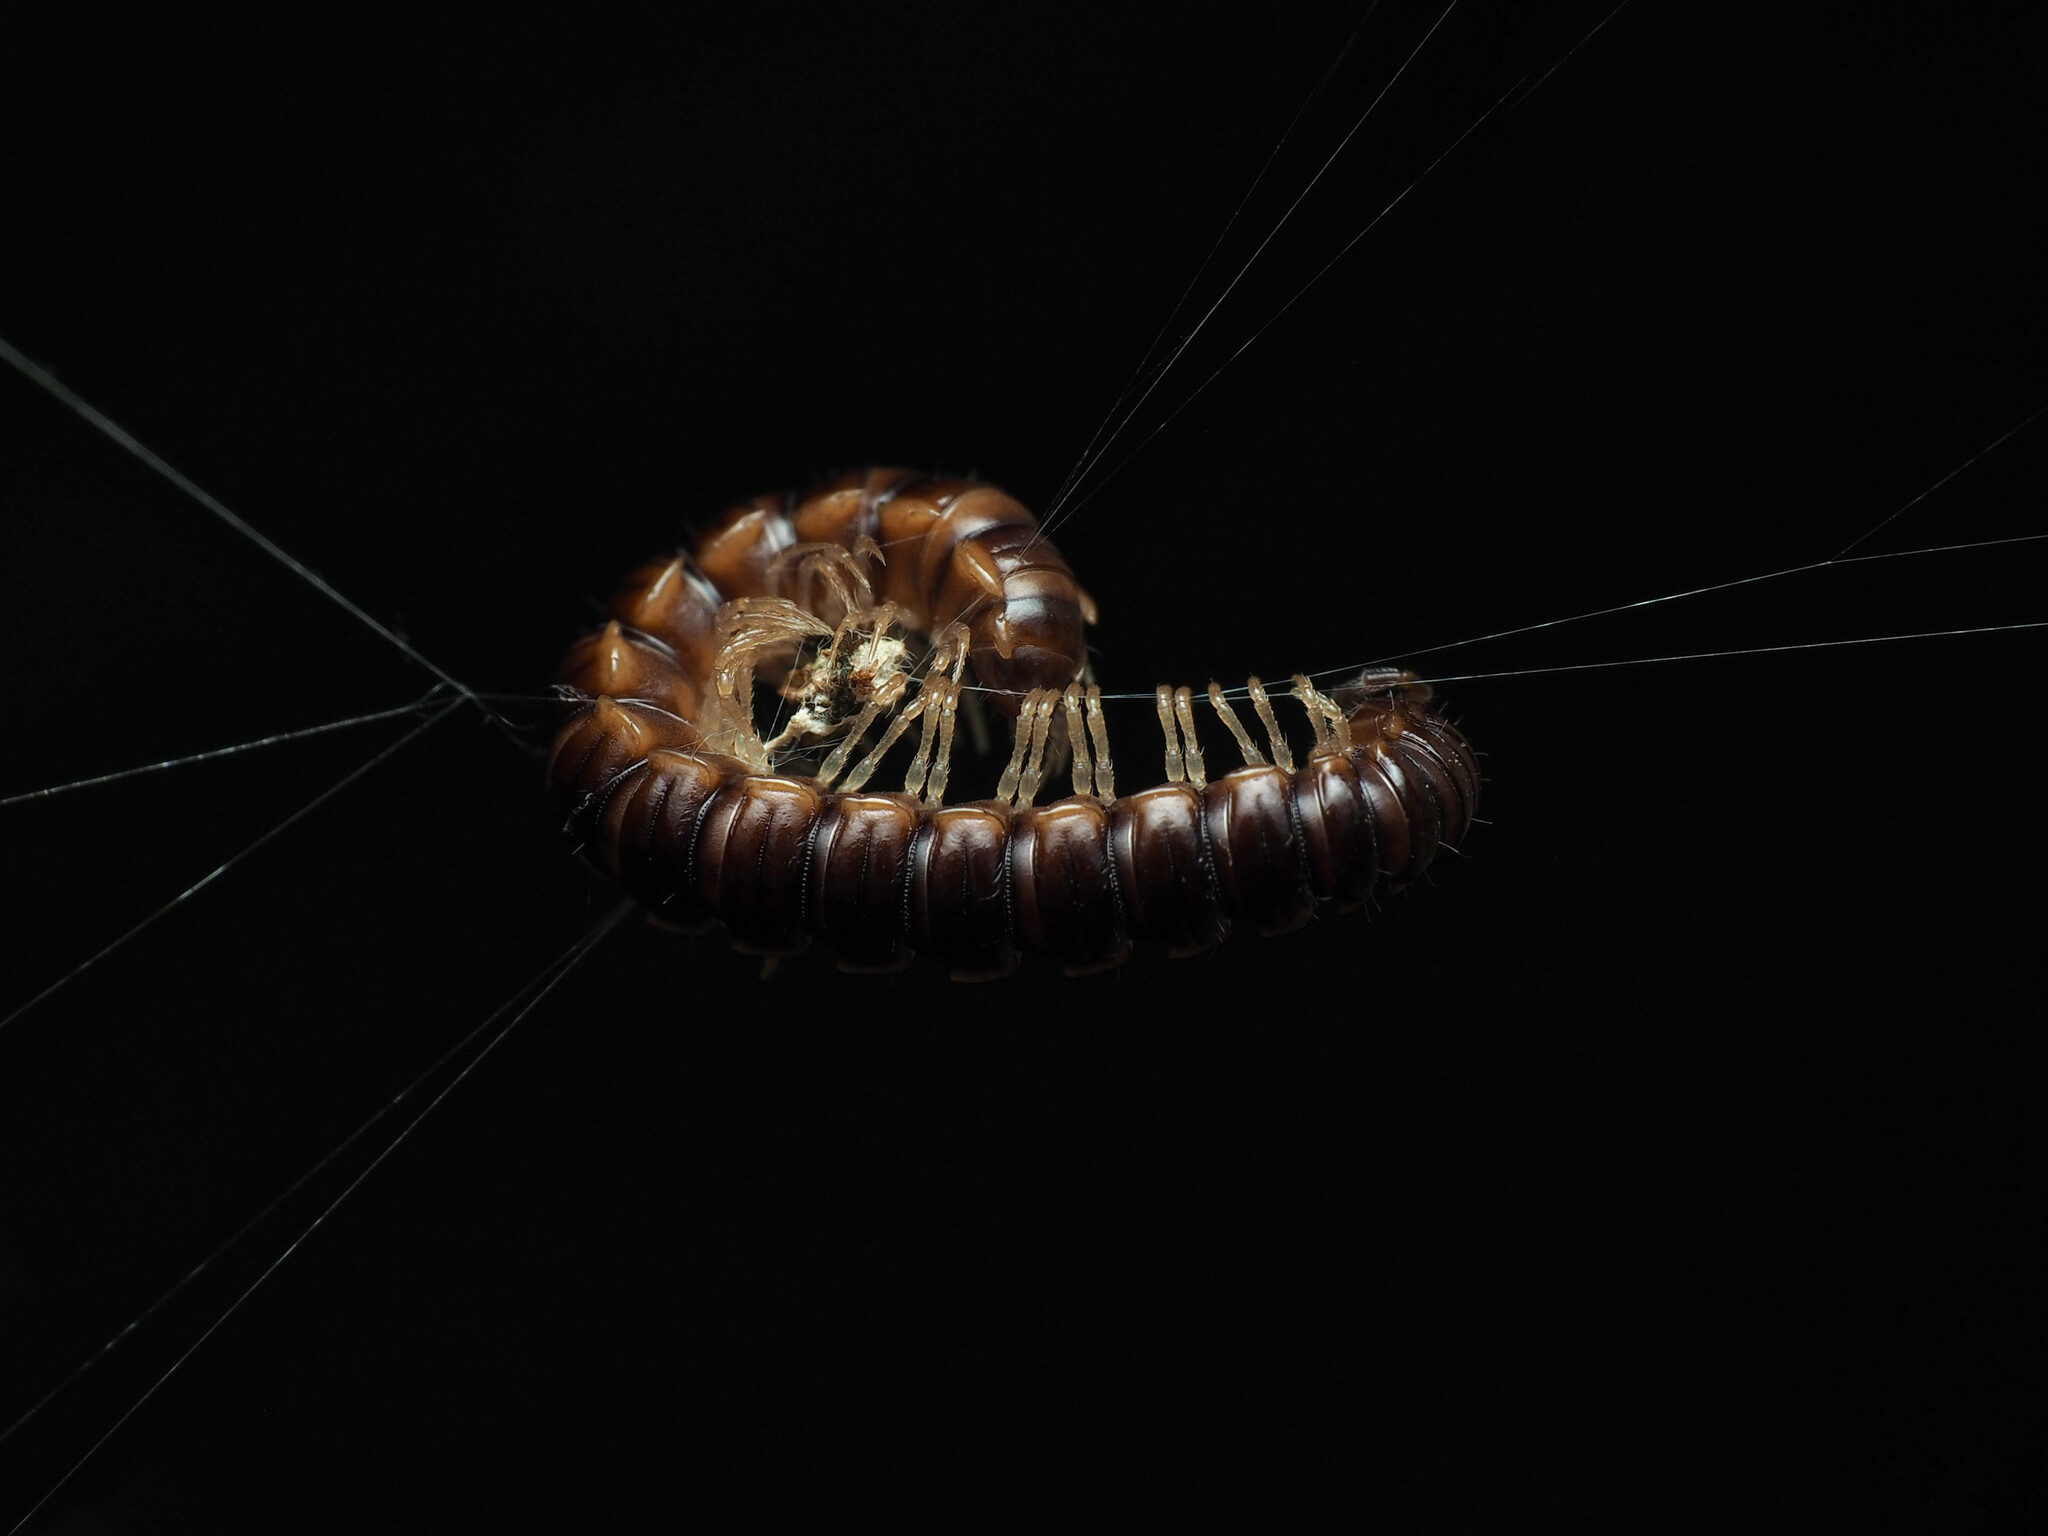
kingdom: Animalia
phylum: Arthropoda
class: Diplopoda
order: Polydesmida
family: Paradoxosomatidae
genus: Oxidus
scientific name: Oxidus gracilis
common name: Greenhouse millipede
